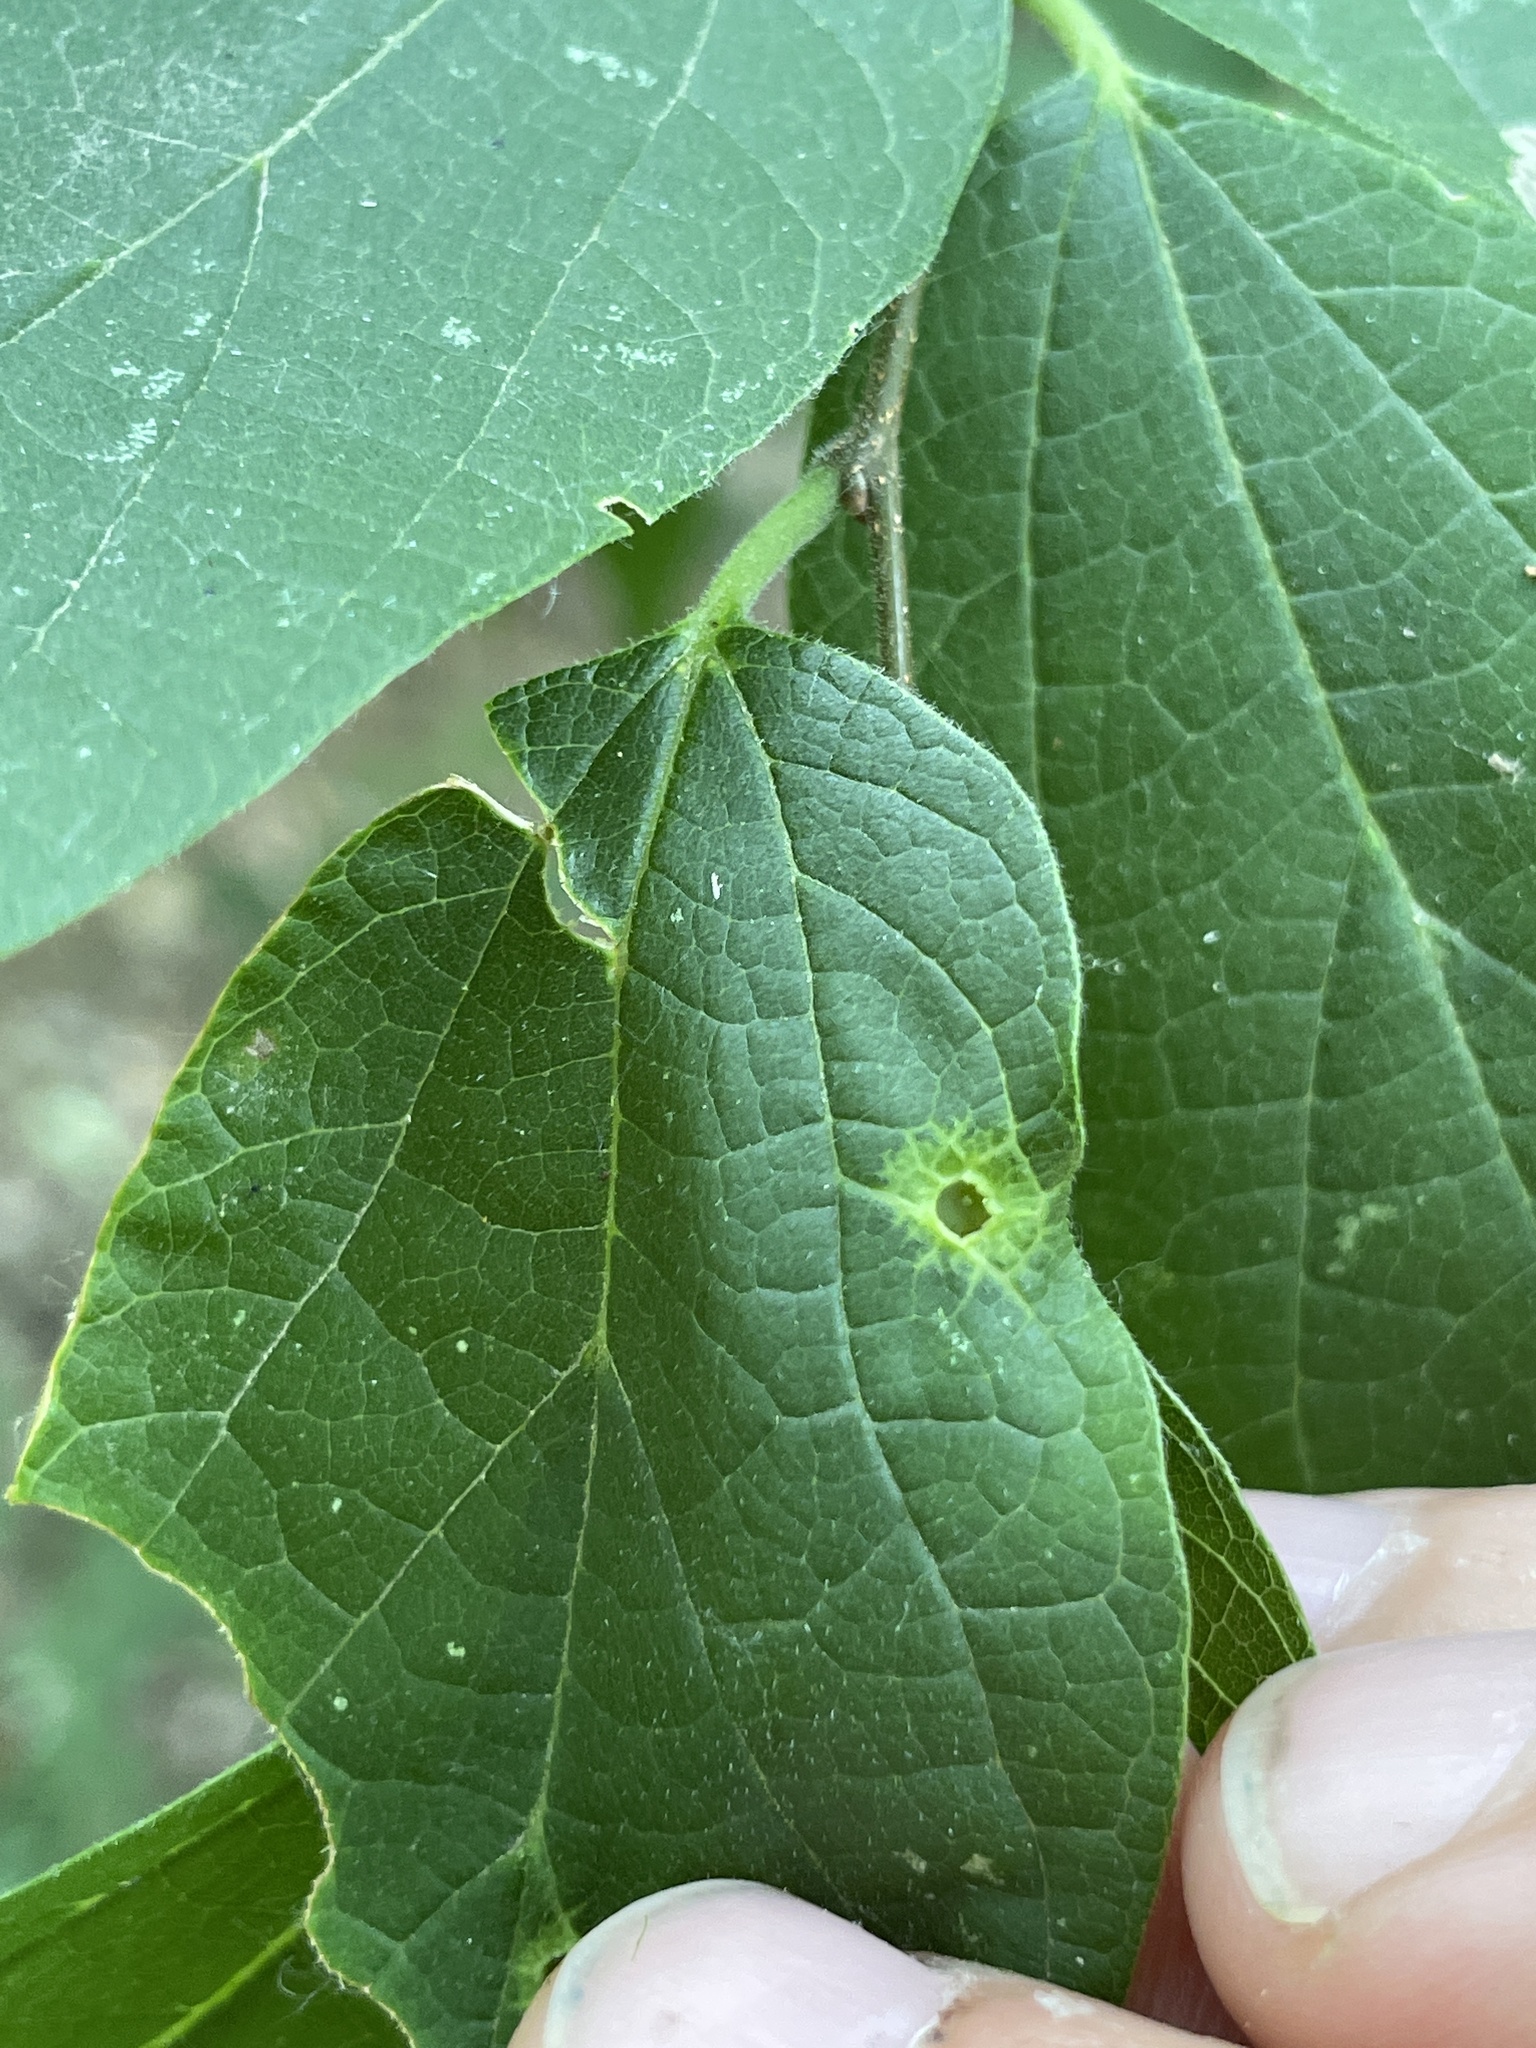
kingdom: Animalia
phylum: Arthropoda
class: Insecta
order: Hemiptera
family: Aphalaridae
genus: Pachypsylla
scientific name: Pachypsylla celtidismamma
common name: Hackberry nipplegall psyllid
